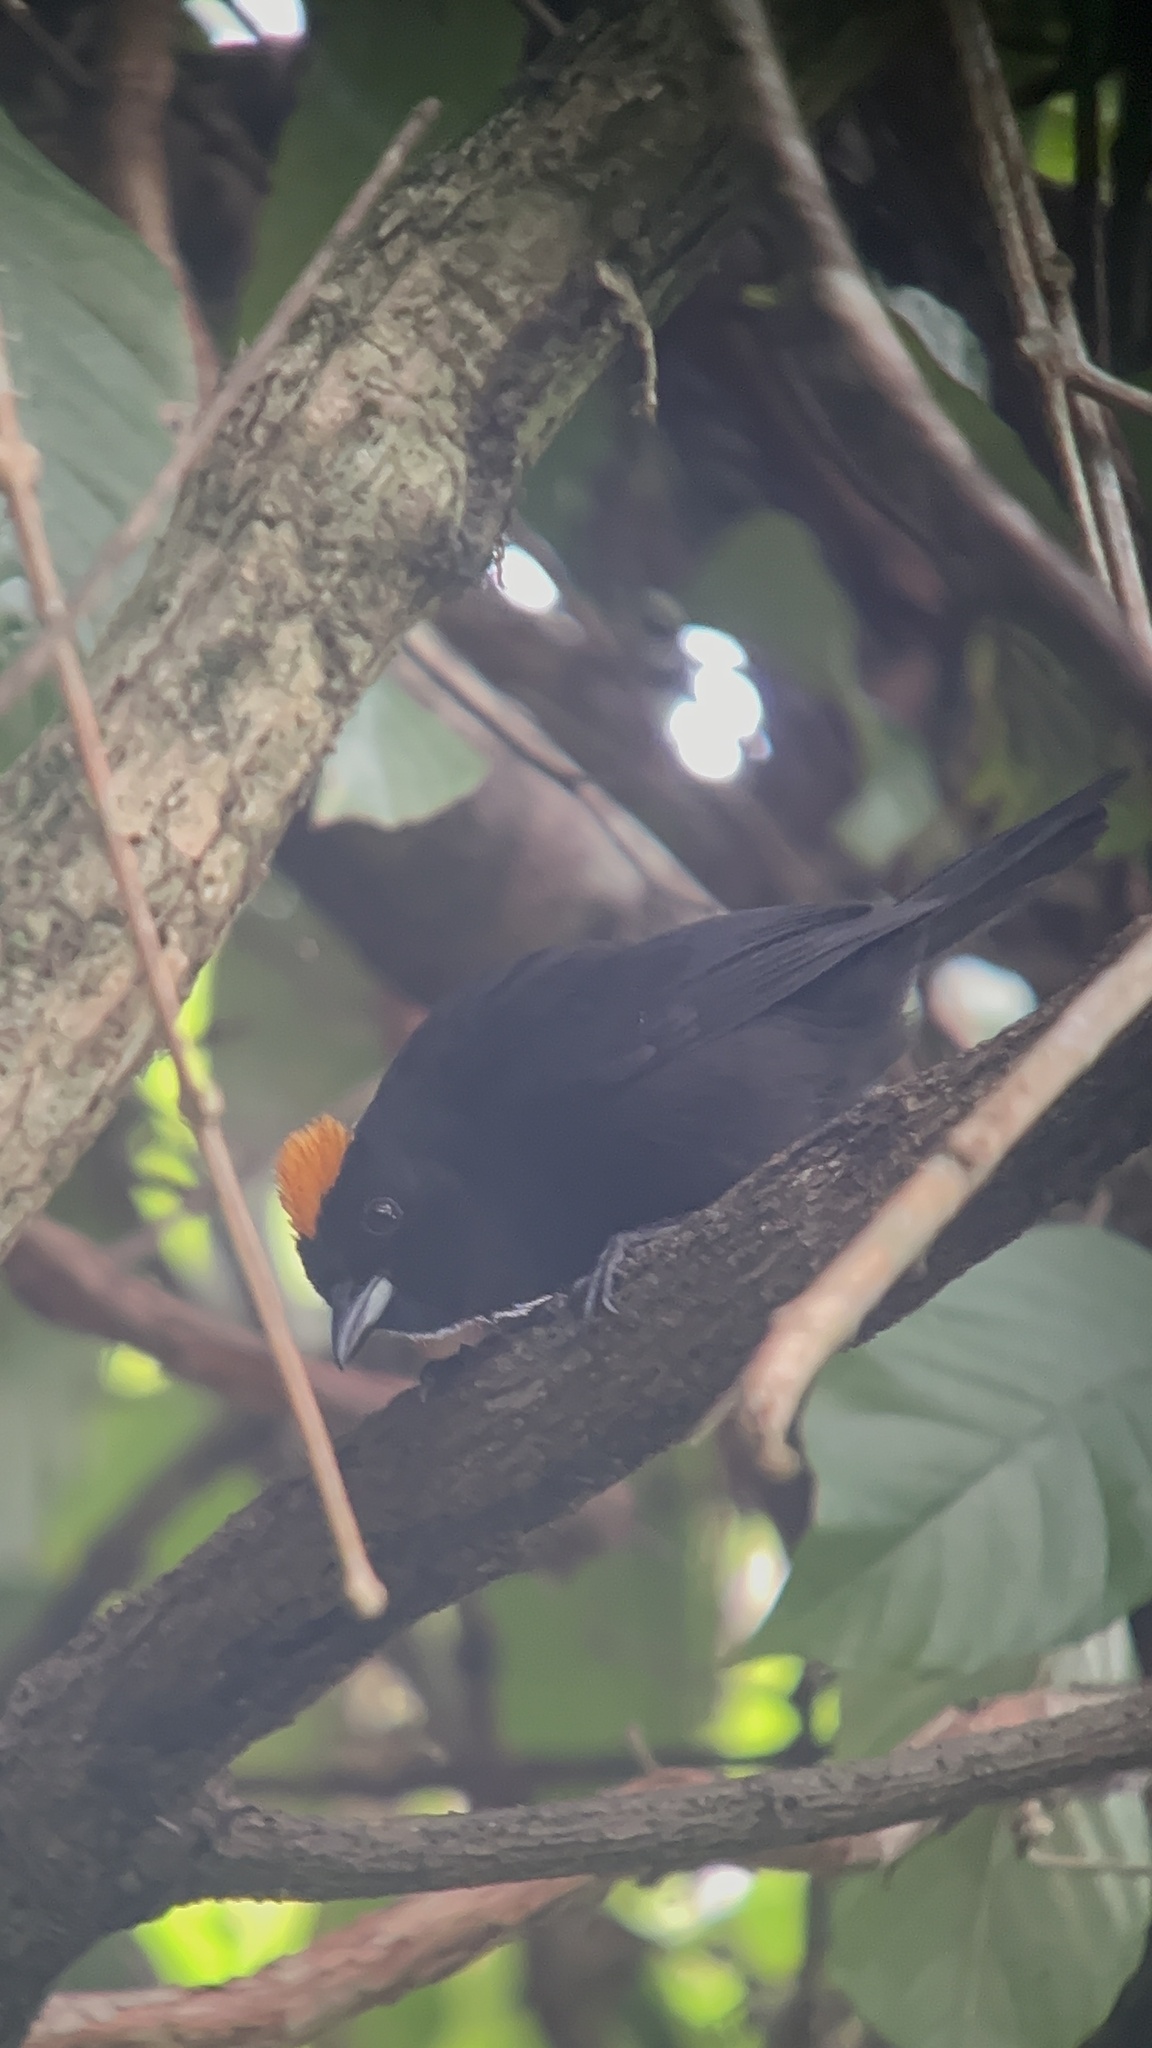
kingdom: Animalia
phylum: Chordata
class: Aves
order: Passeriformes
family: Thraupidae
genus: Tachyphonus
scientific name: Tachyphonus delatrii
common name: Tawny-crested tanager
